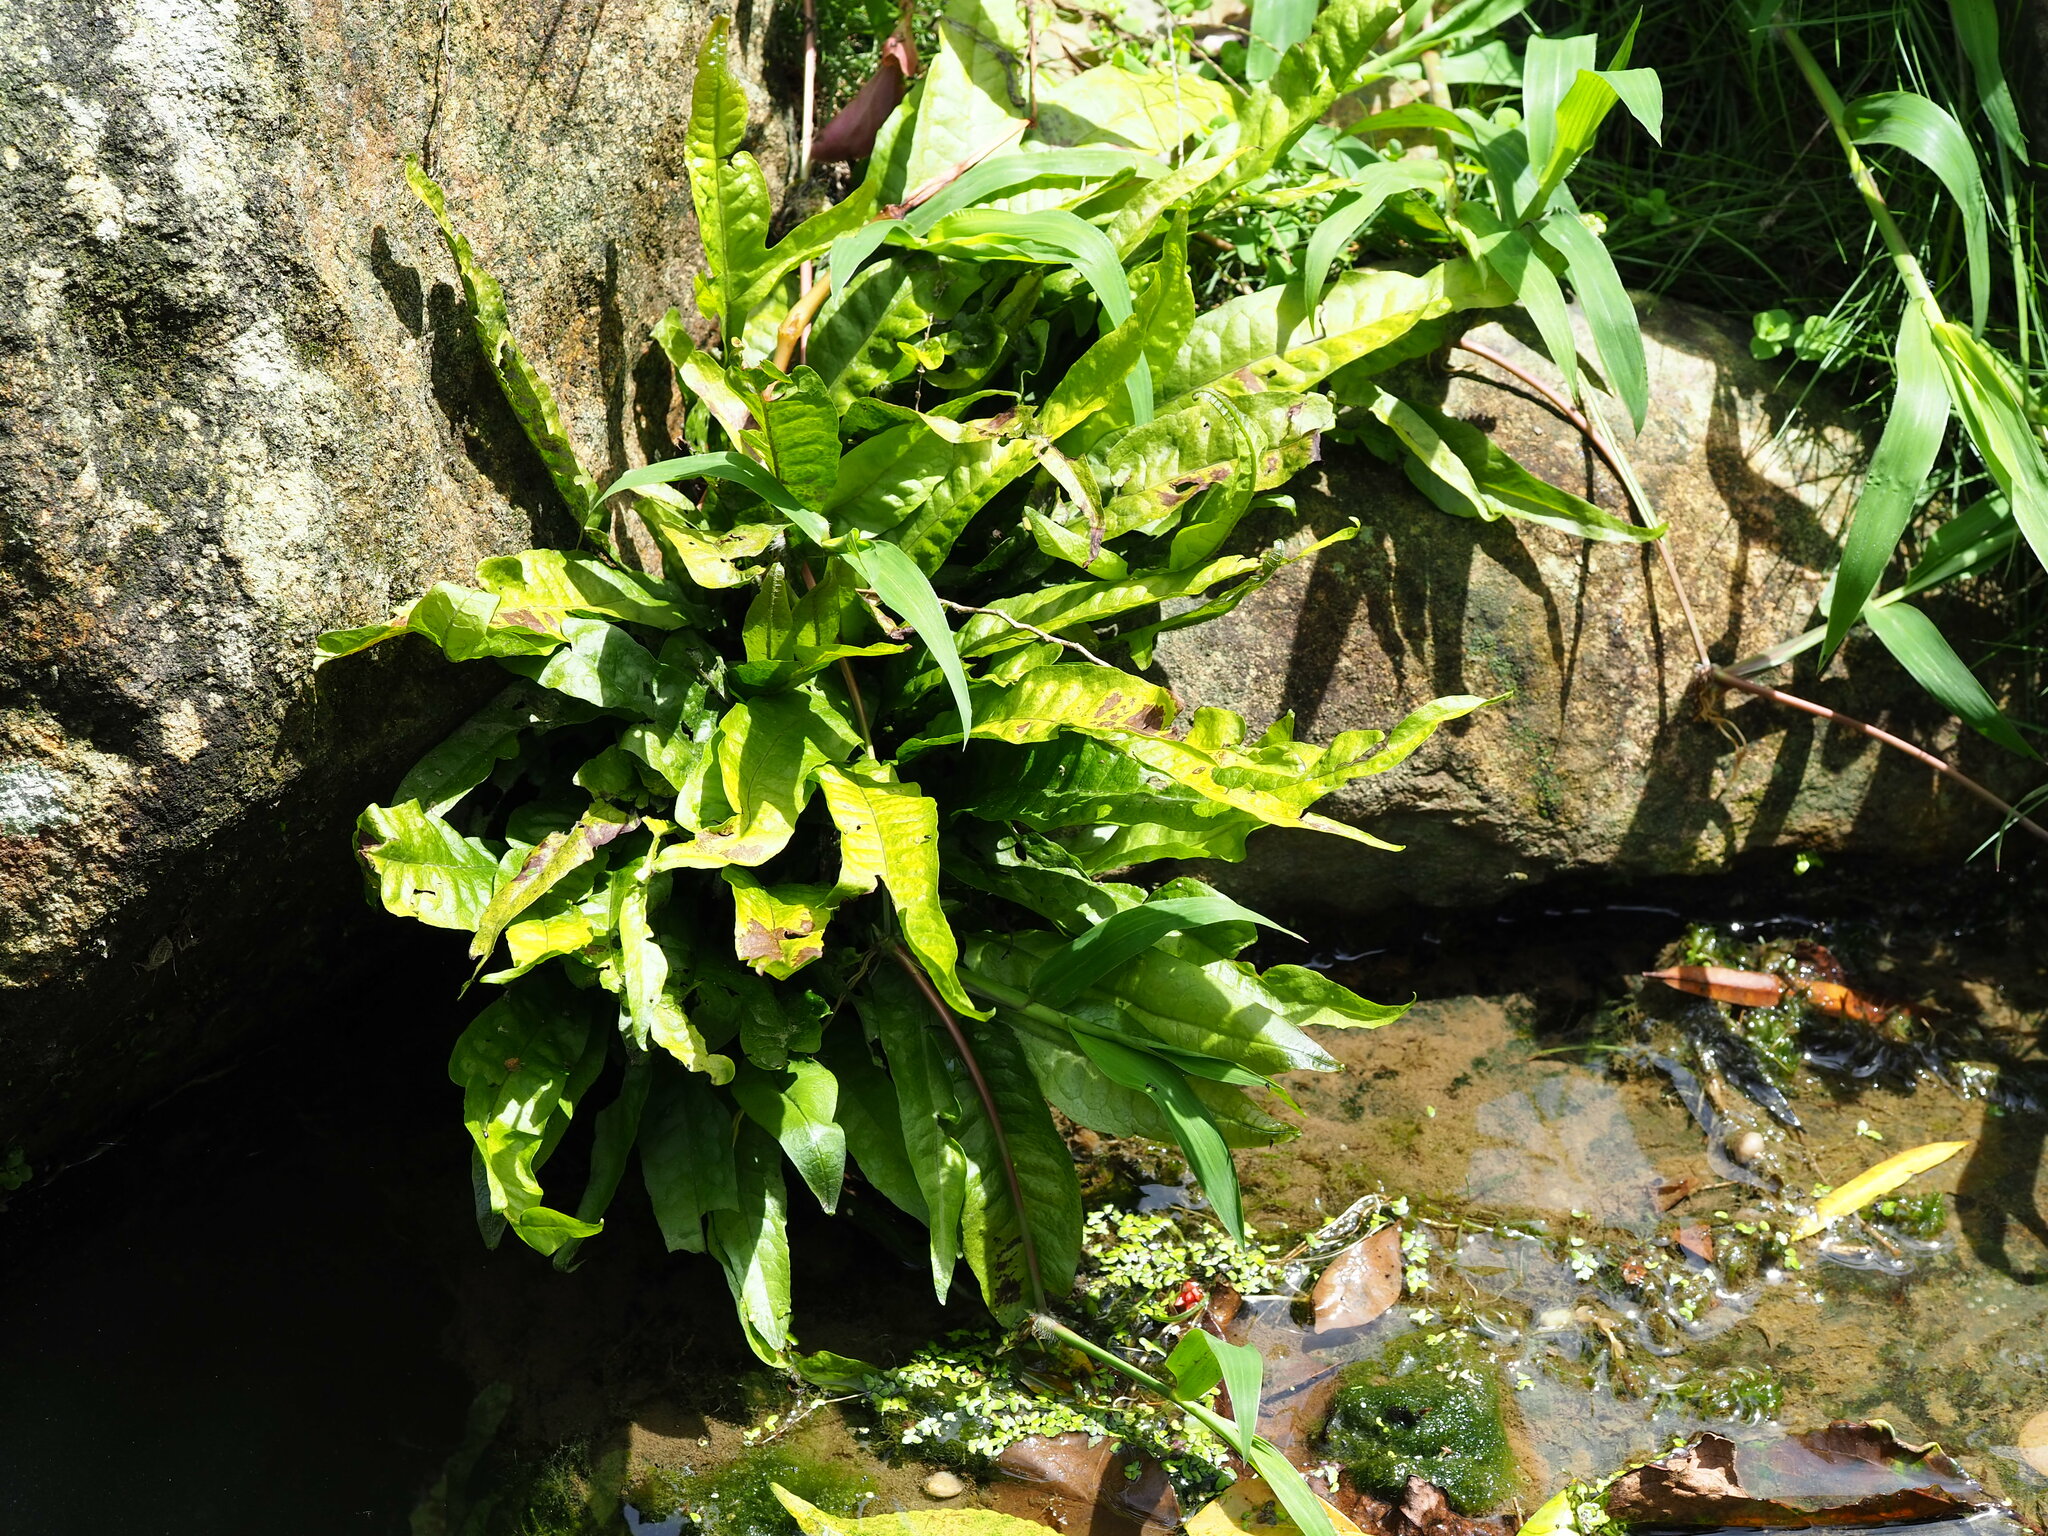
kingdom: Plantae
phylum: Tracheophyta
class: Polypodiopsida
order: Polypodiales
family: Polypodiaceae
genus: Leptochilus
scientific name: Leptochilus pteropus
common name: Java fern
